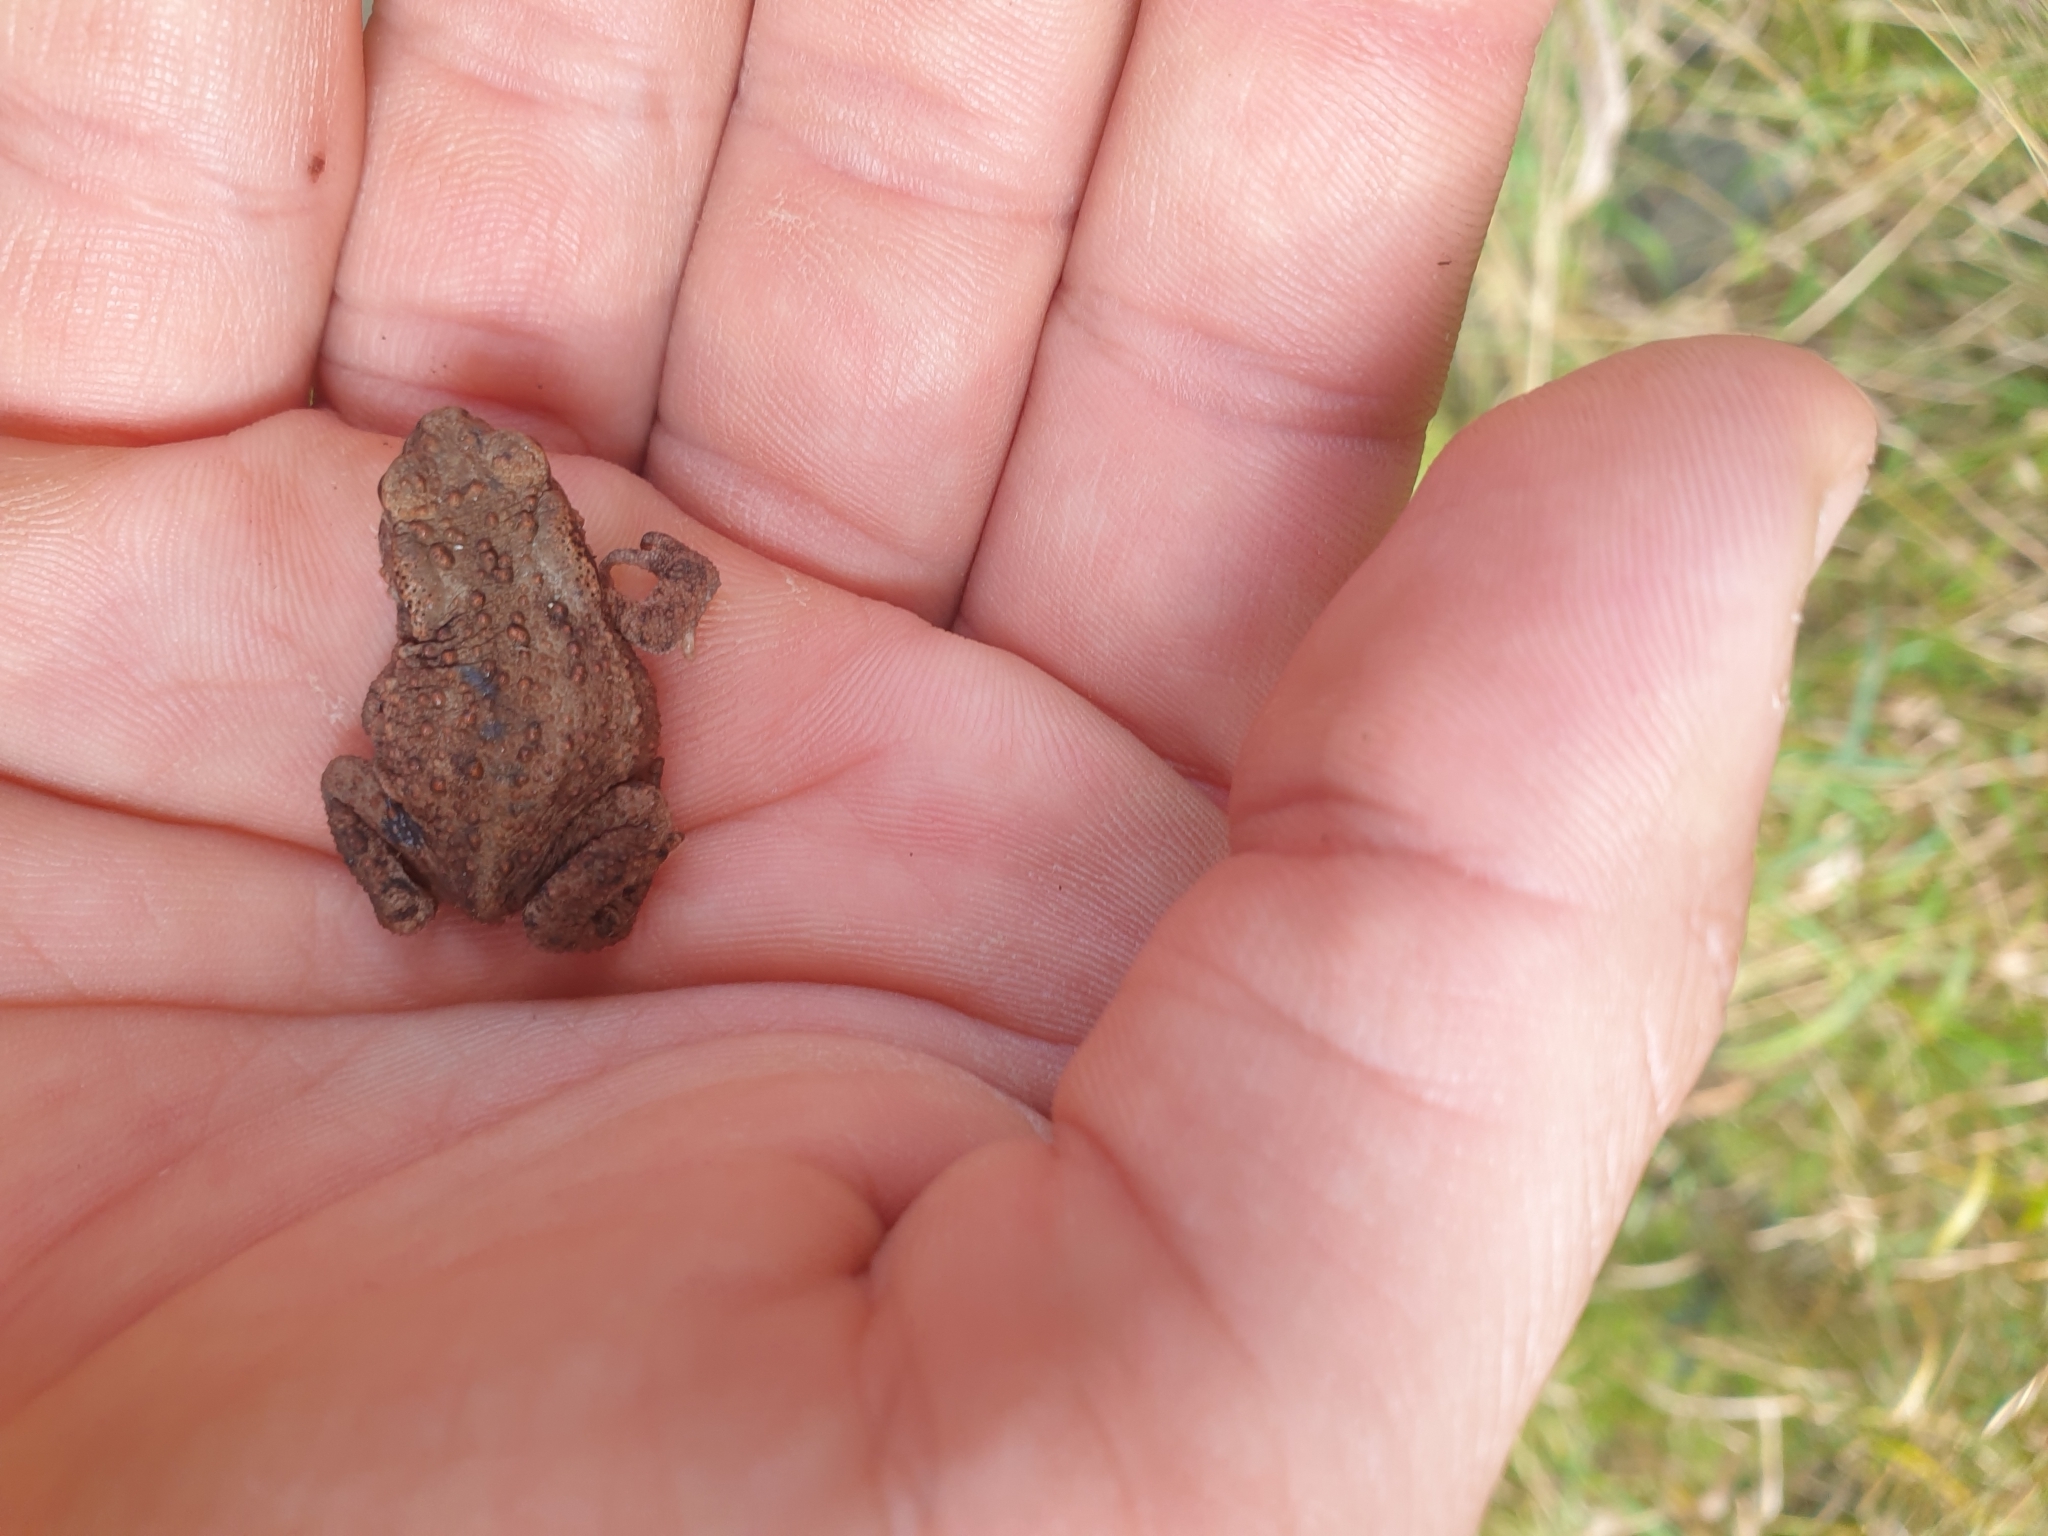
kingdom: Animalia
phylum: Chordata
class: Amphibia
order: Anura
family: Bufonidae
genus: Bufo
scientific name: Bufo bufo
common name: Common toad
